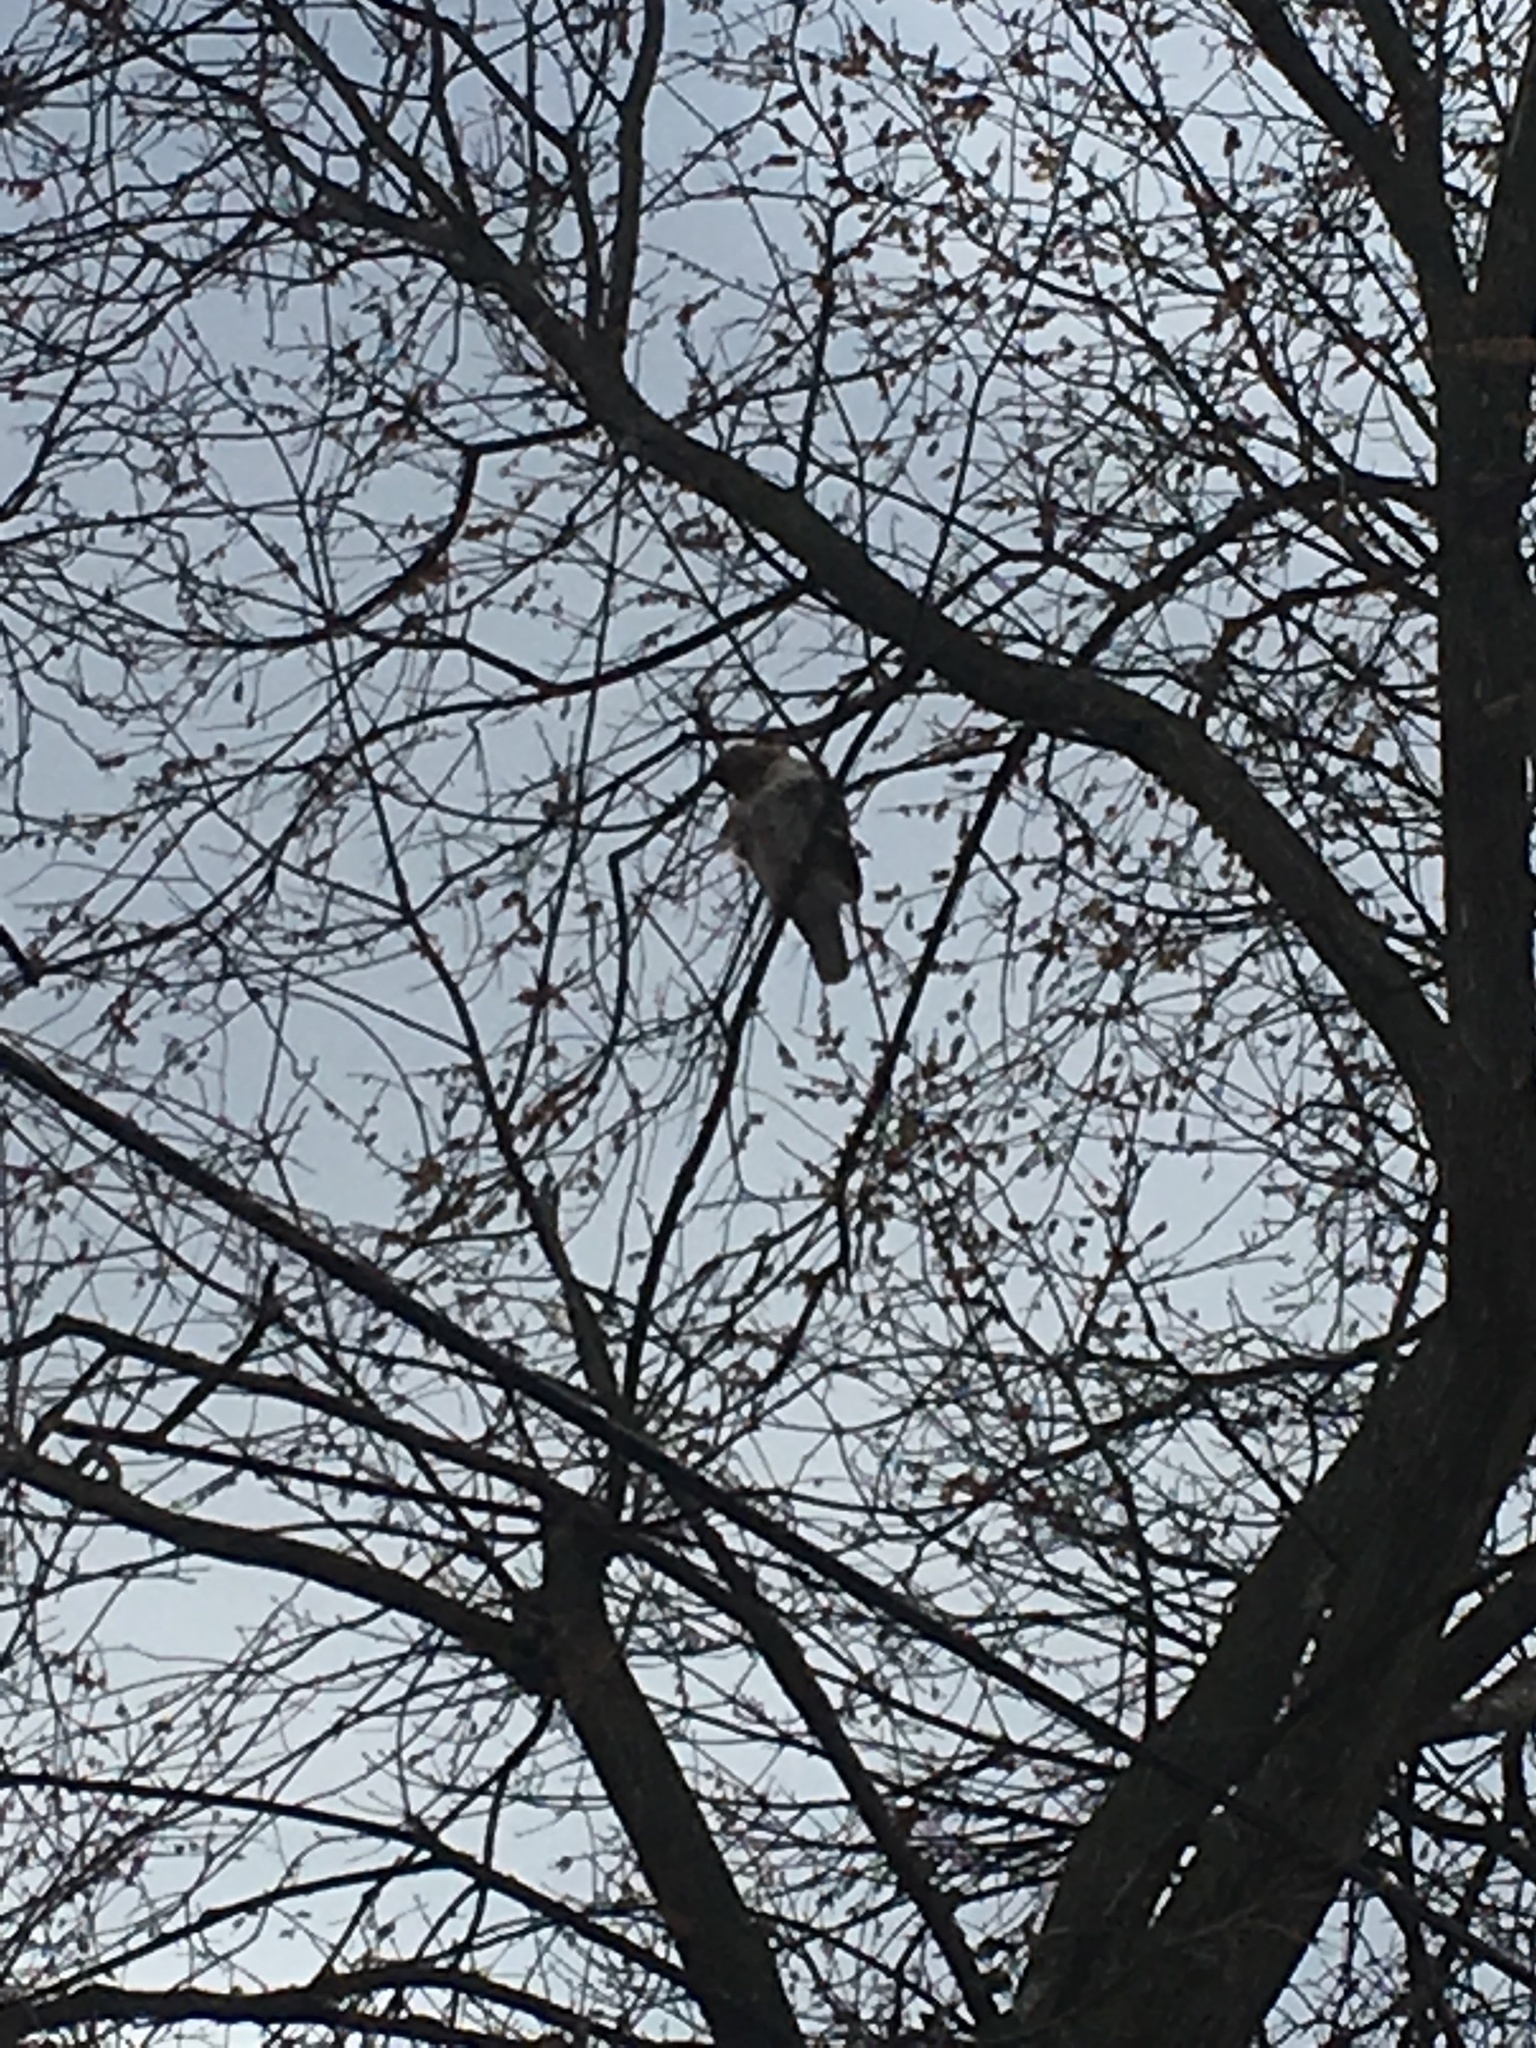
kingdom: Animalia
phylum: Chordata
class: Aves
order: Accipitriformes
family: Accipitridae
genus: Buteo
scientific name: Buteo jamaicensis
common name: Red-tailed hawk
